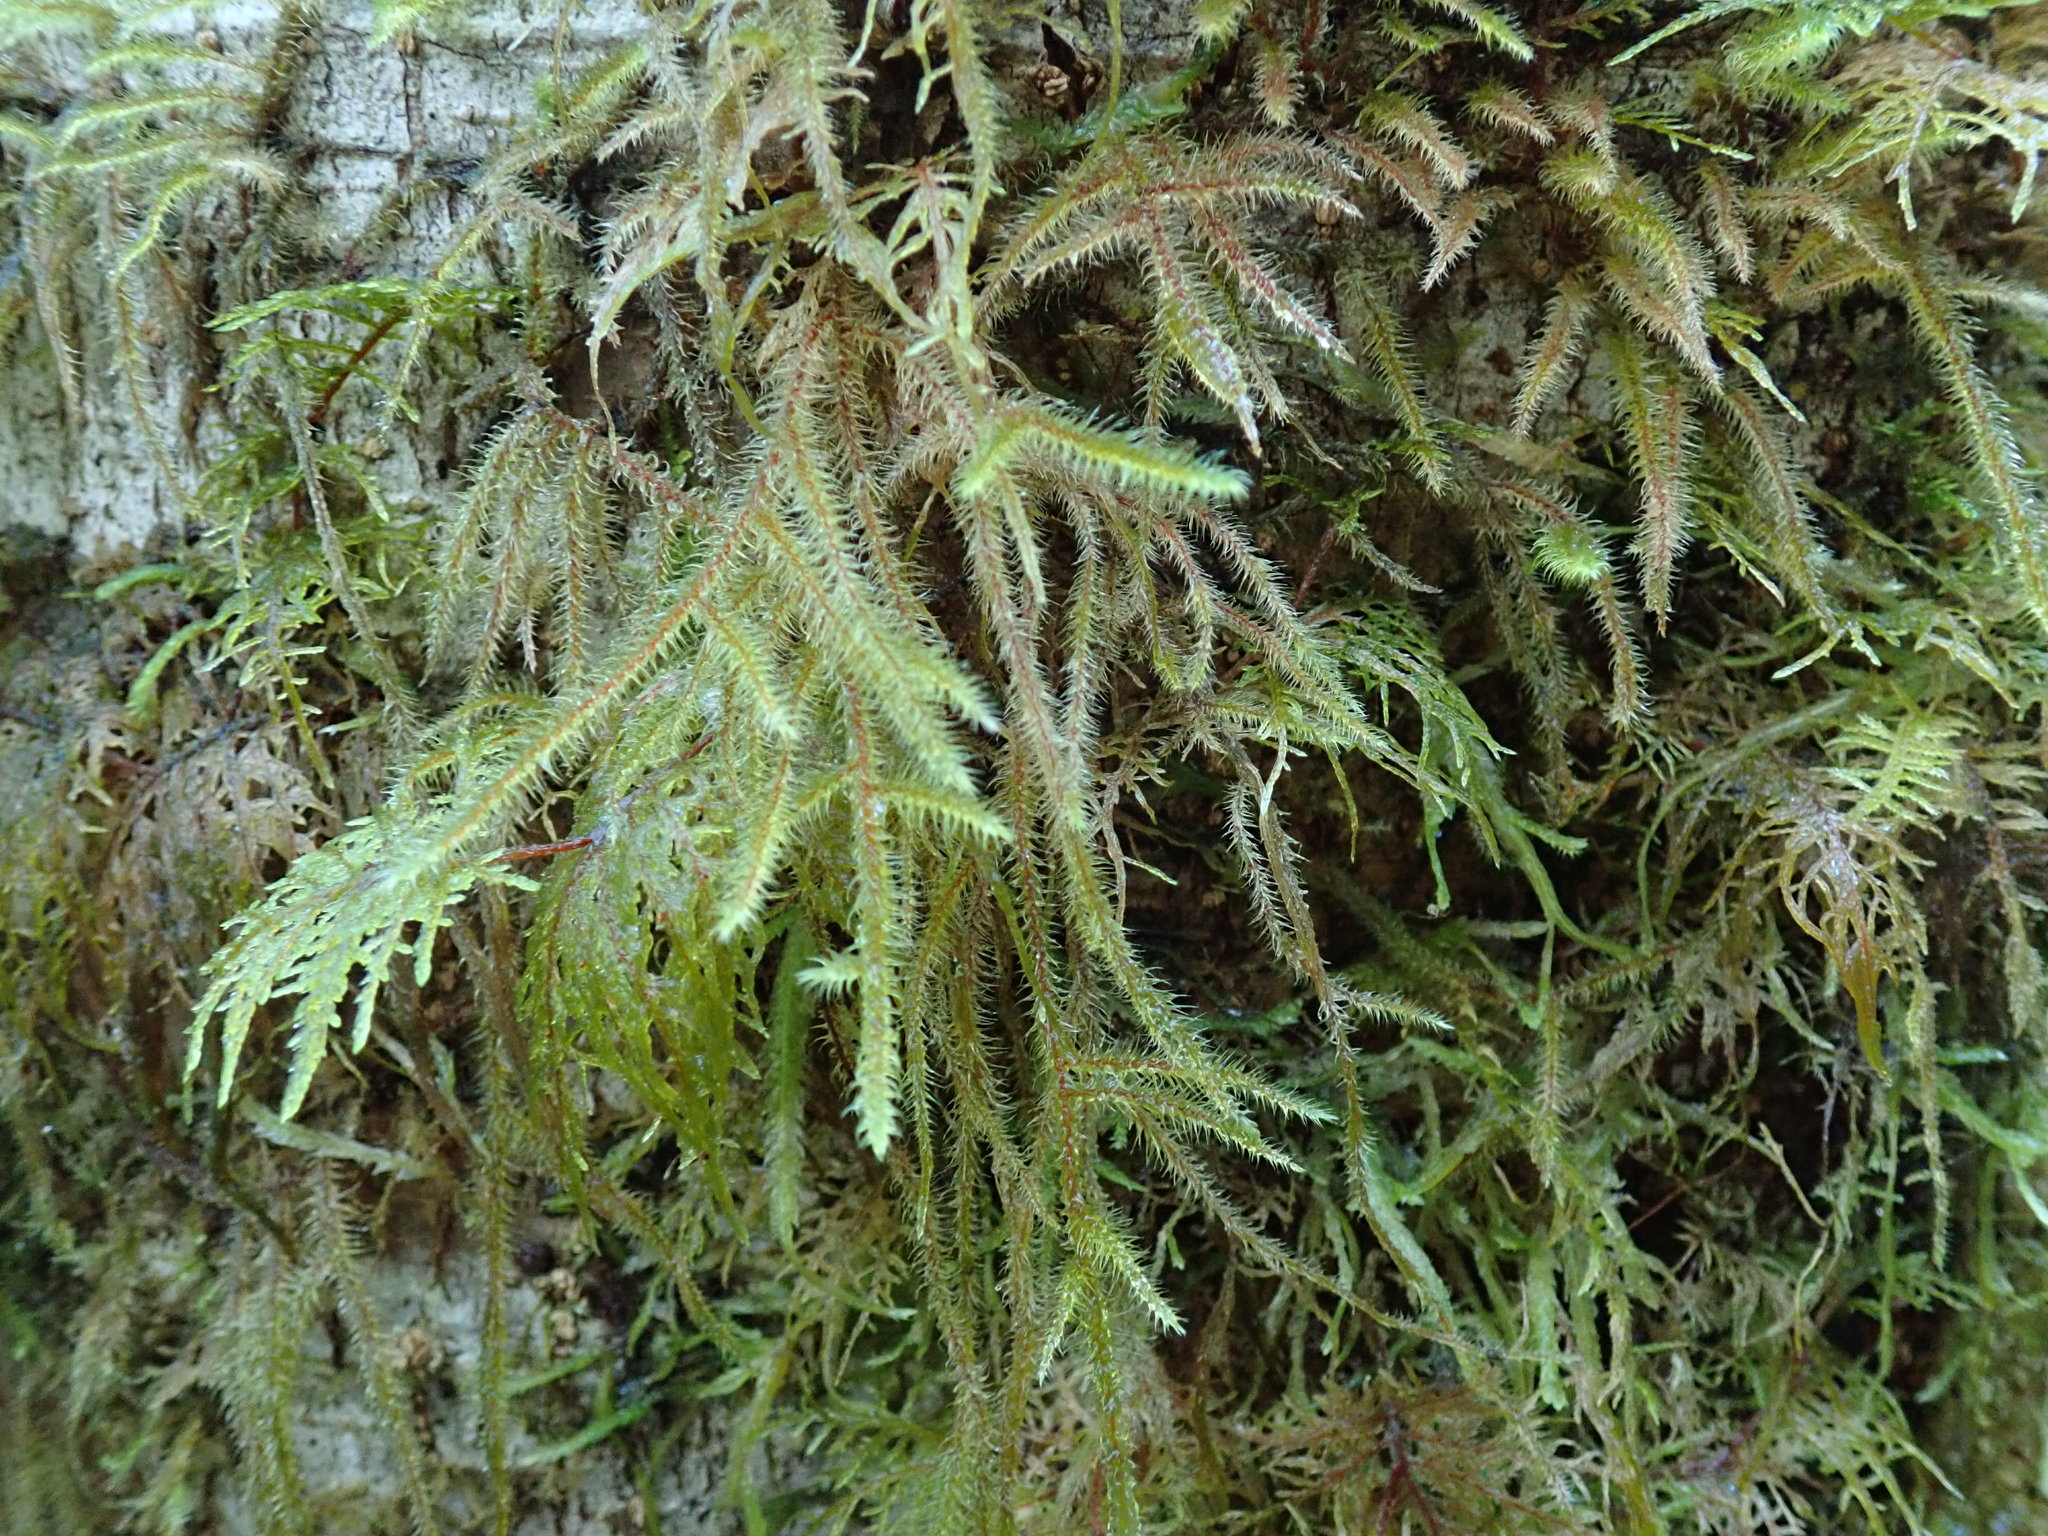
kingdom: Plantae
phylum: Bryophyta
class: Bryopsida
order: Hypnales
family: Hylocomiaceae
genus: Rhytidiadelphus
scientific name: Rhytidiadelphus loreus
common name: Lanky moss
